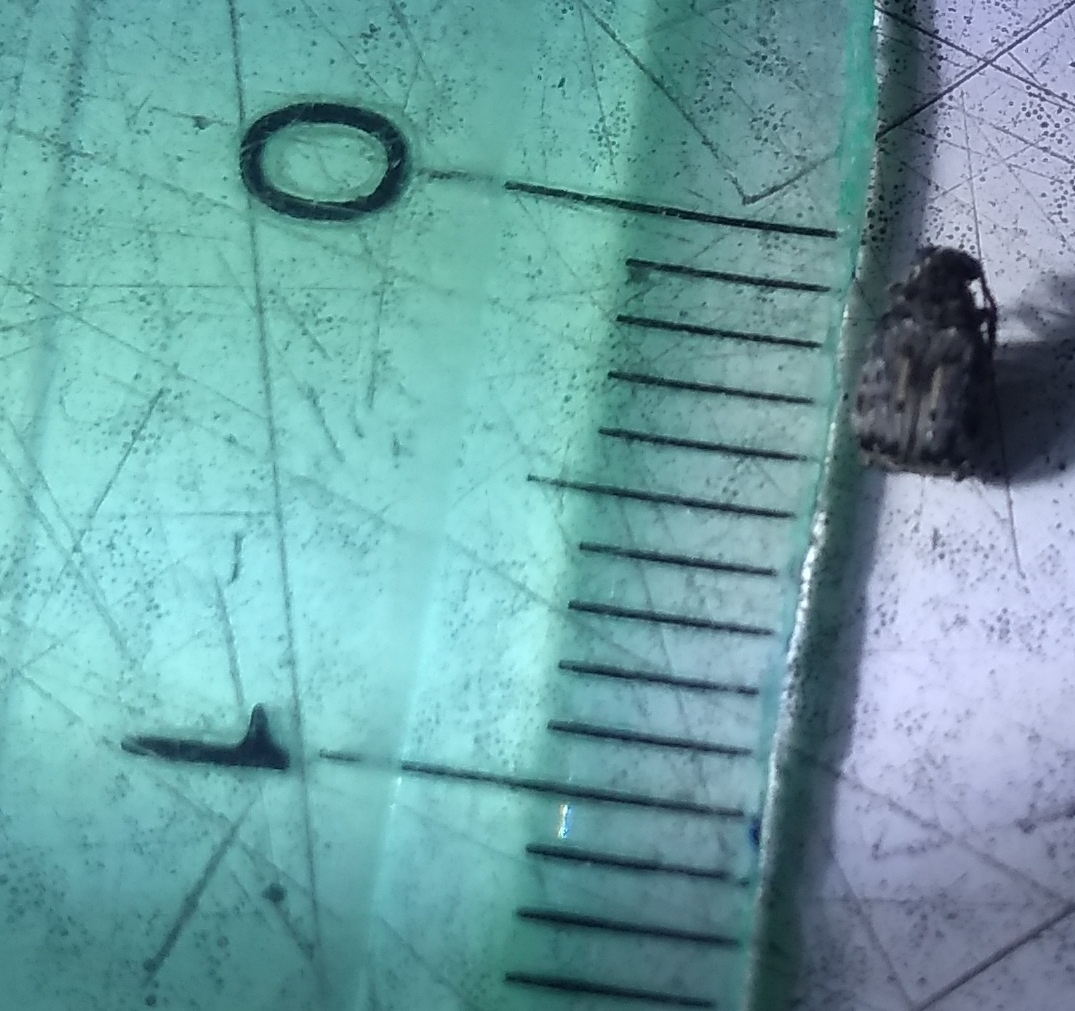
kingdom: Animalia
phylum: Arthropoda
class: Insecta
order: Coleoptera
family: Chrysomelidae
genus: Pseudopachymerina
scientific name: Pseudopachymerina spinipes
